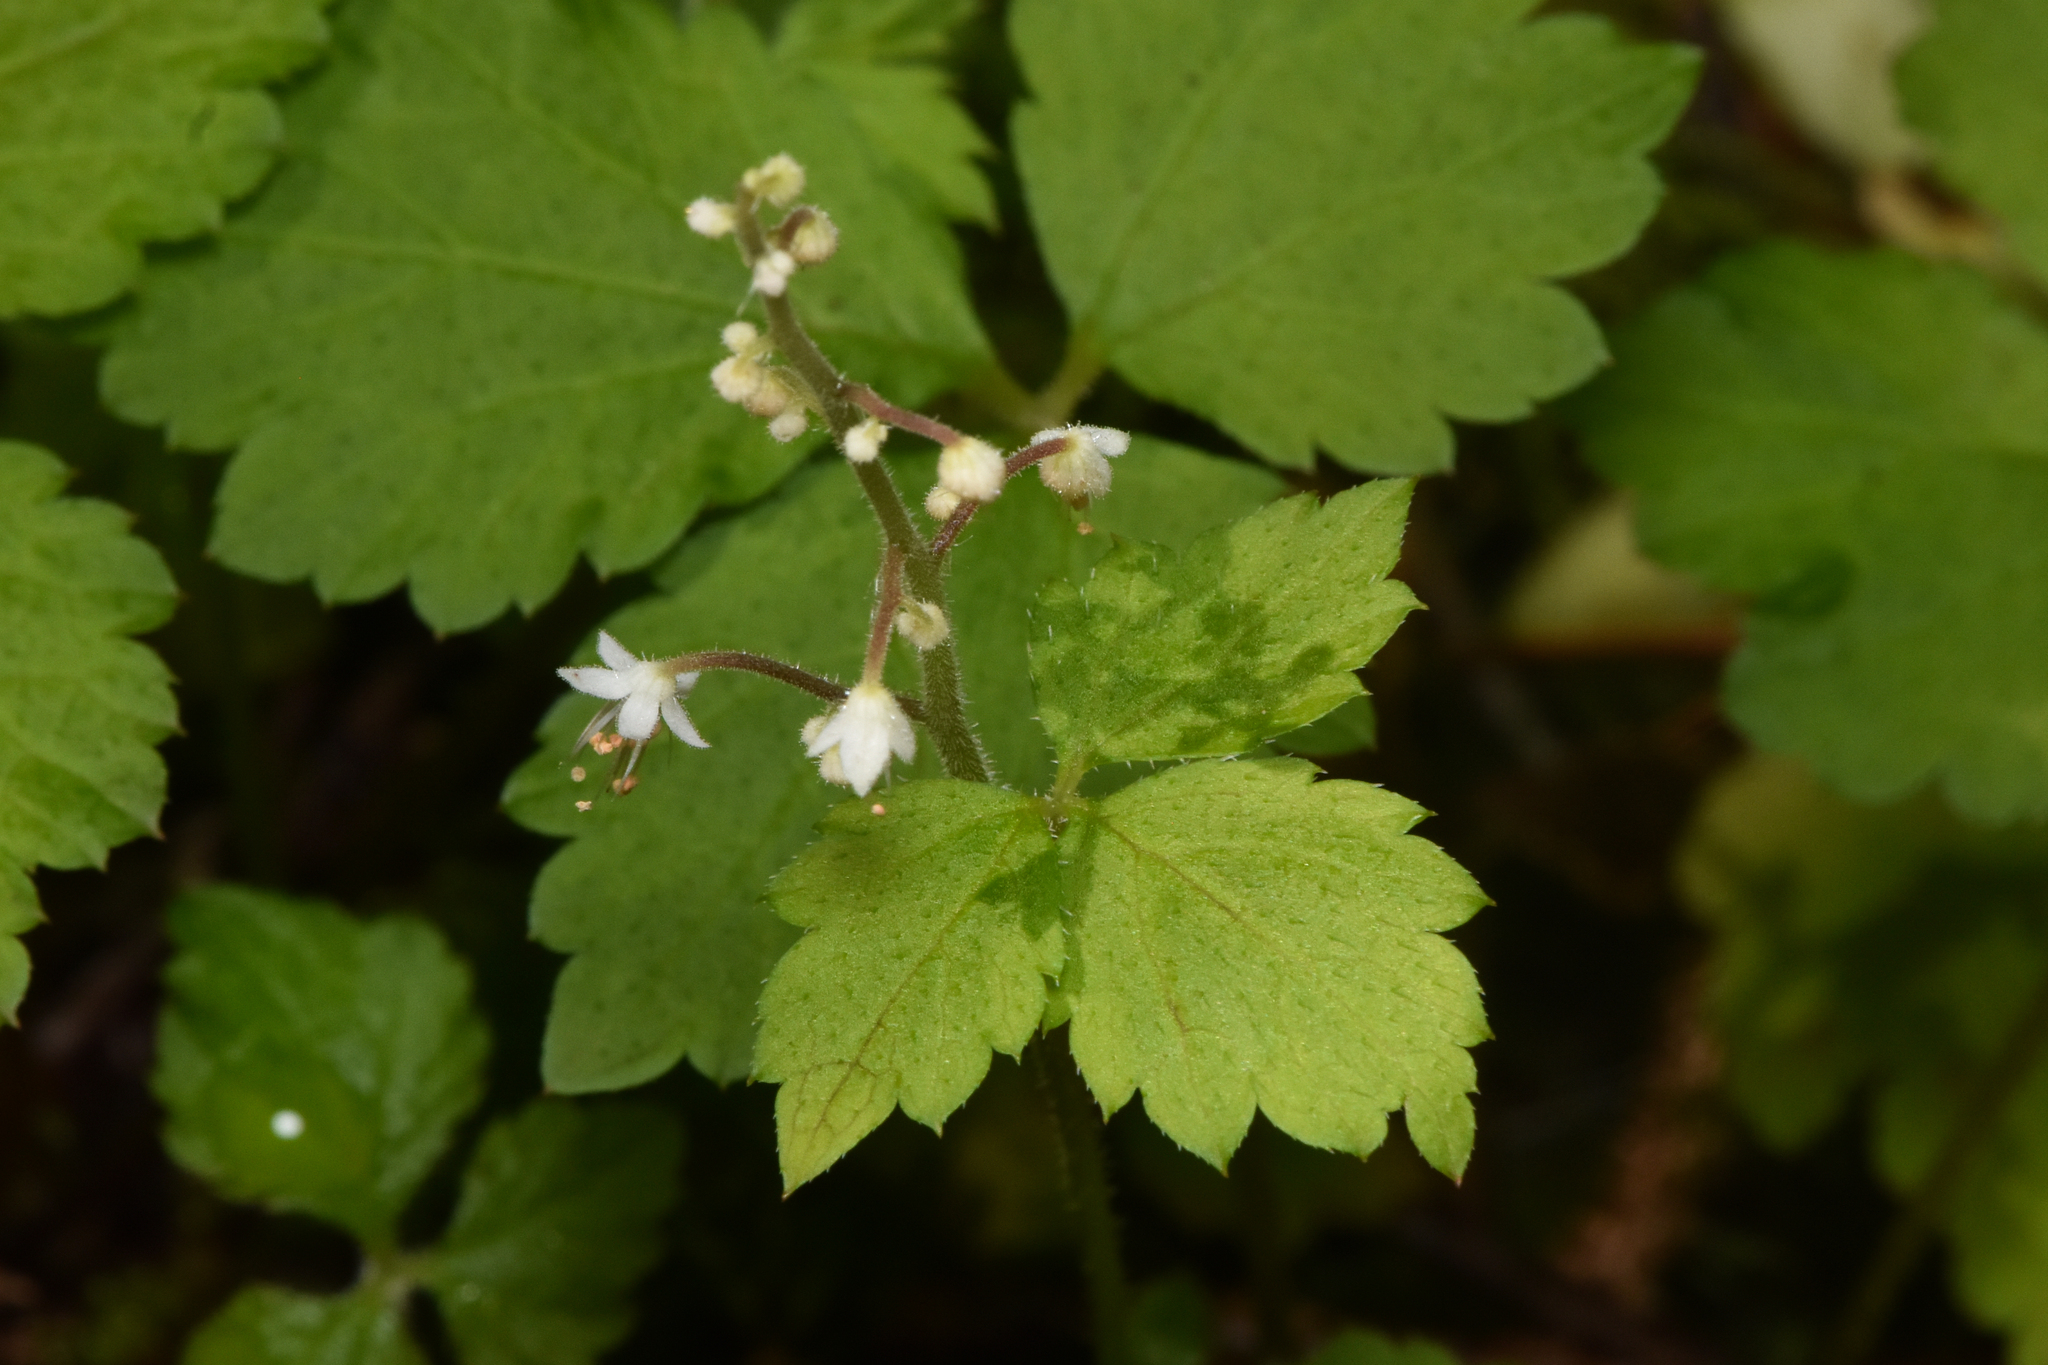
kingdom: Plantae
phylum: Tracheophyta
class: Magnoliopsida
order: Saxifragales
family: Saxifragaceae
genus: Tiarella
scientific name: Tiarella trifoliata
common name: Sugar-scoop
